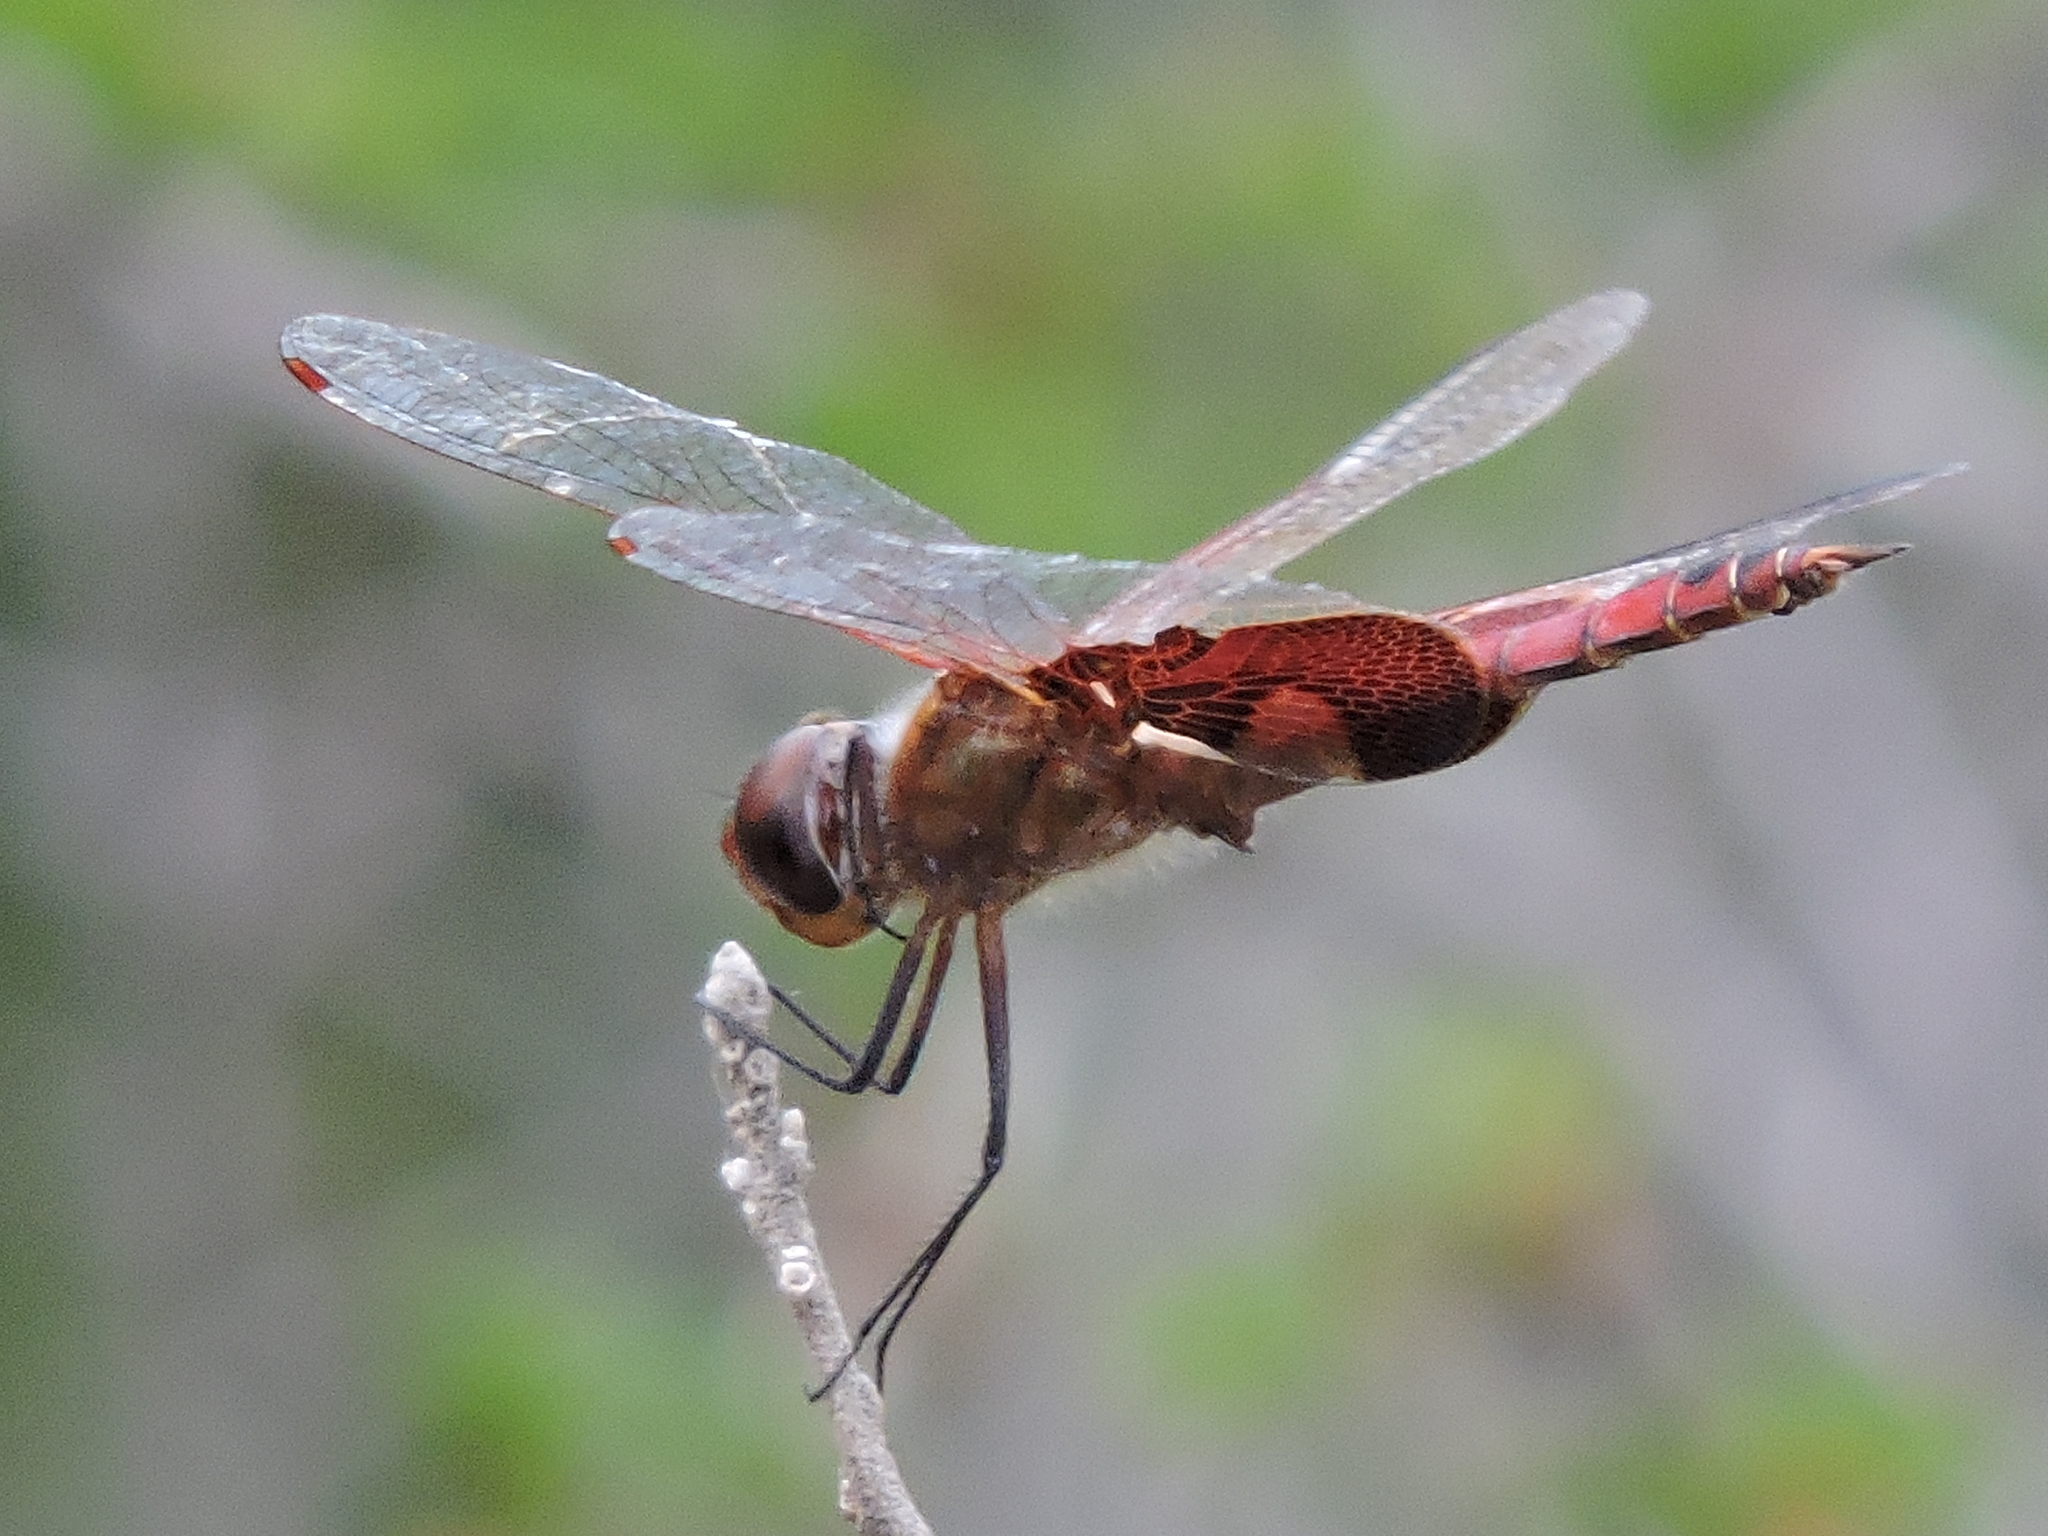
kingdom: Animalia
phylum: Arthropoda
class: Insecta
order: Odonata
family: Libellulidae
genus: Tramea
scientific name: Tramea onusta
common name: Red saddlebags
